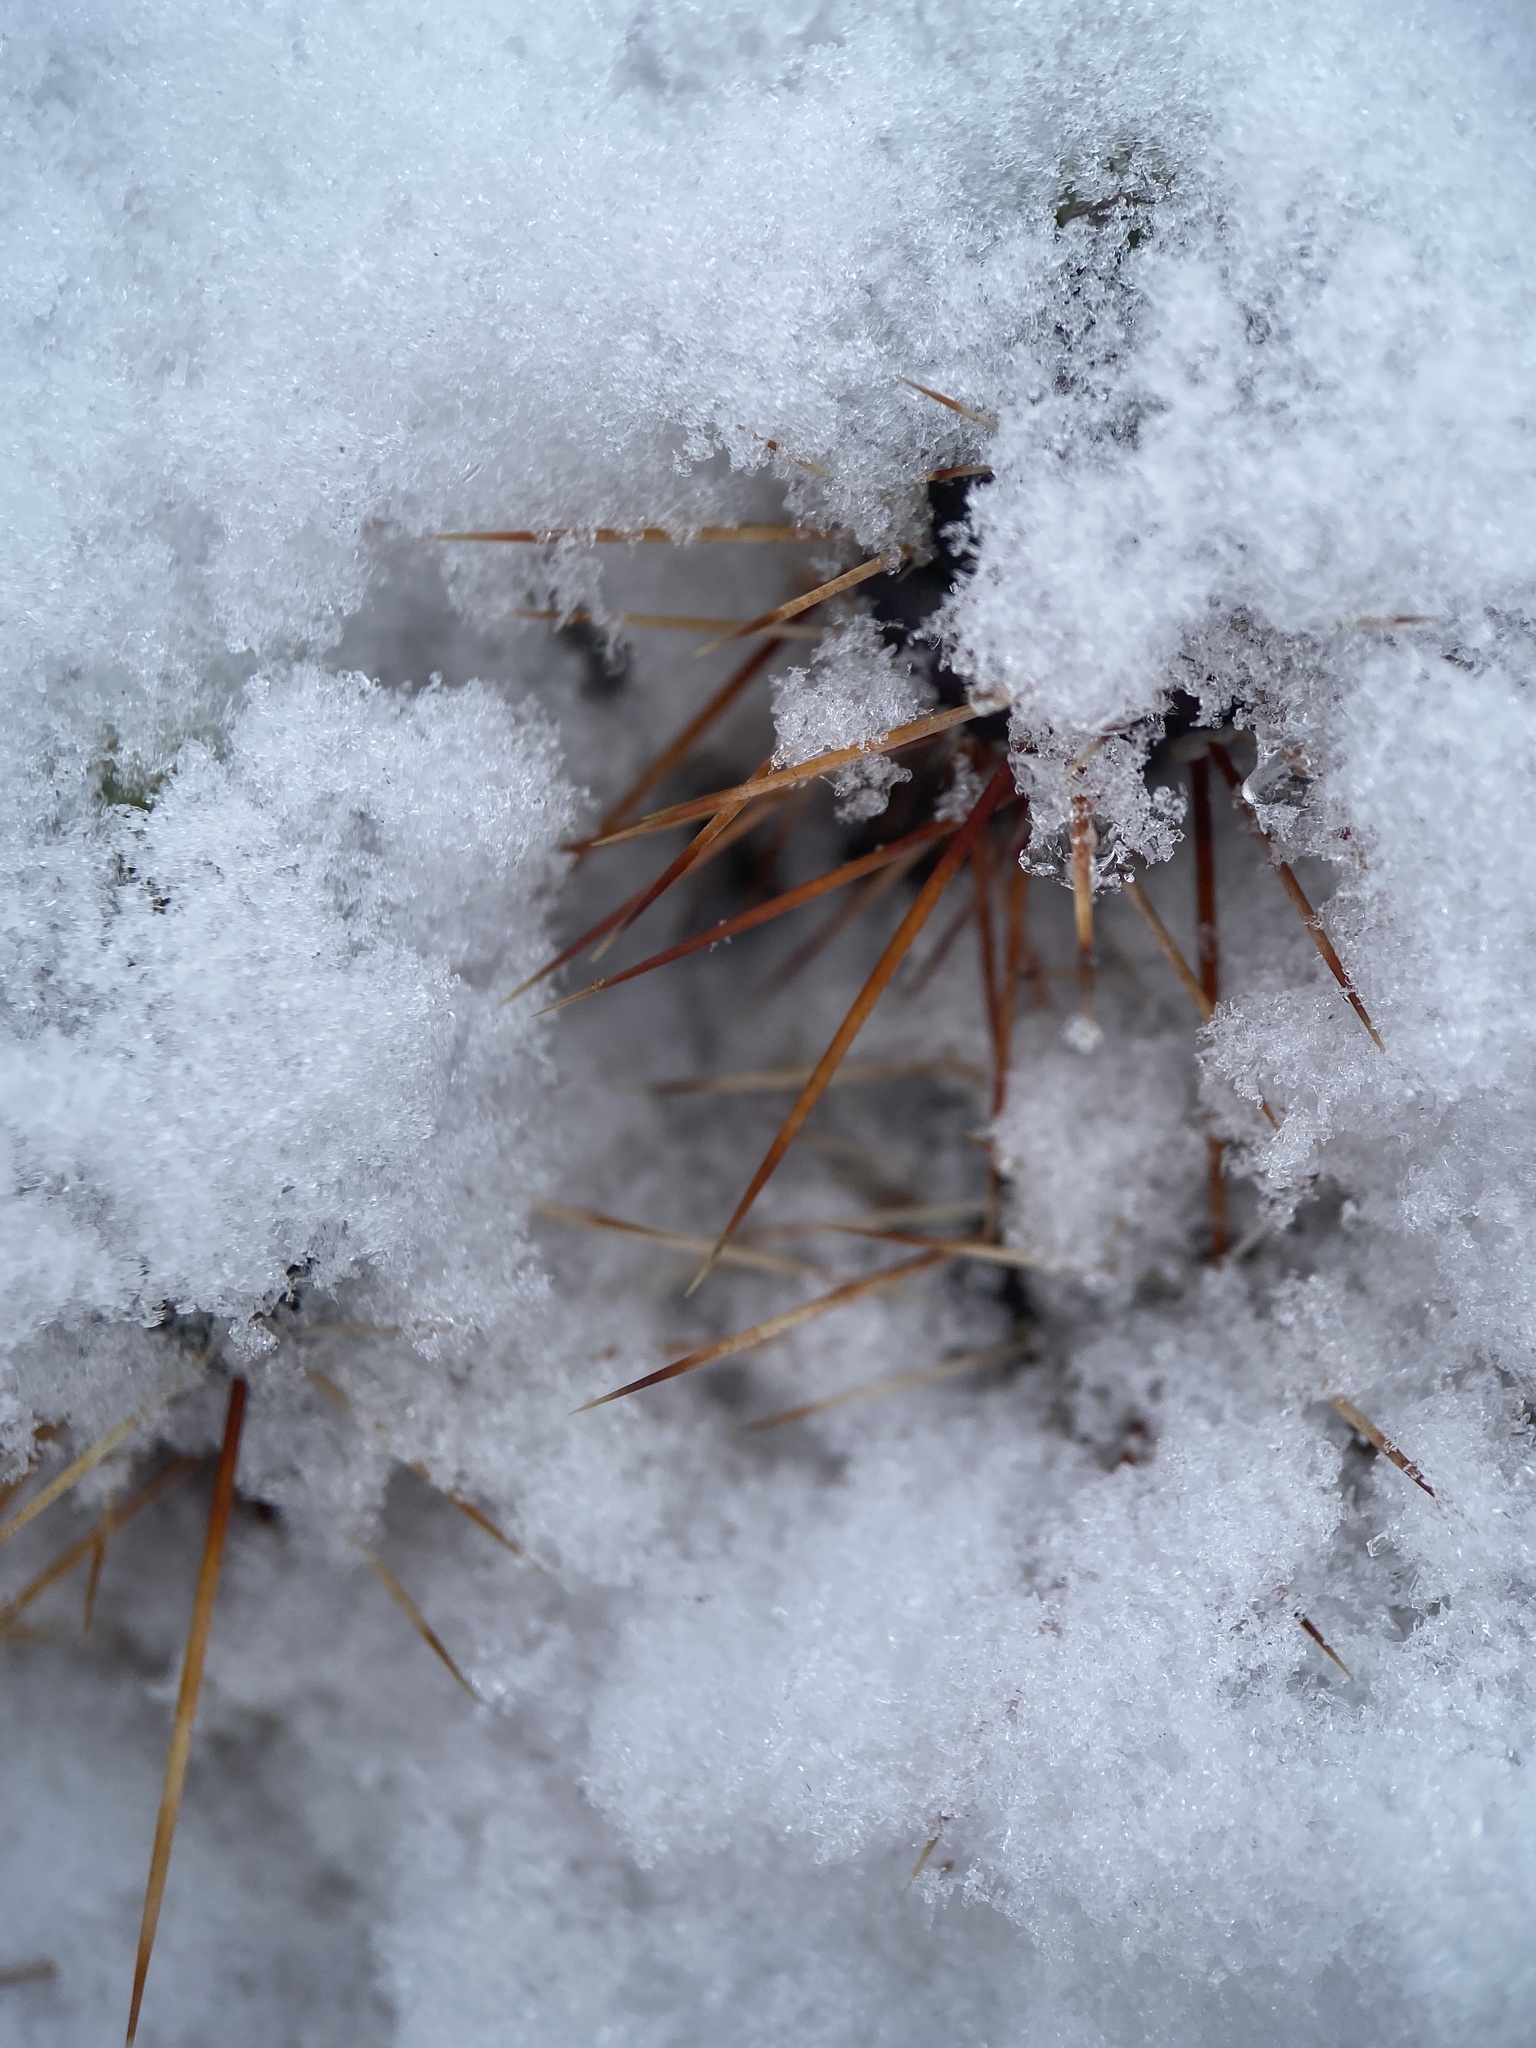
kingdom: Plantae
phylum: Tracheophyta
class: Magnoliopsida
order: Caryophyllales
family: Cactaceae
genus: Opuntia
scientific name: Opuntia fragilis
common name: Brittle cactus
